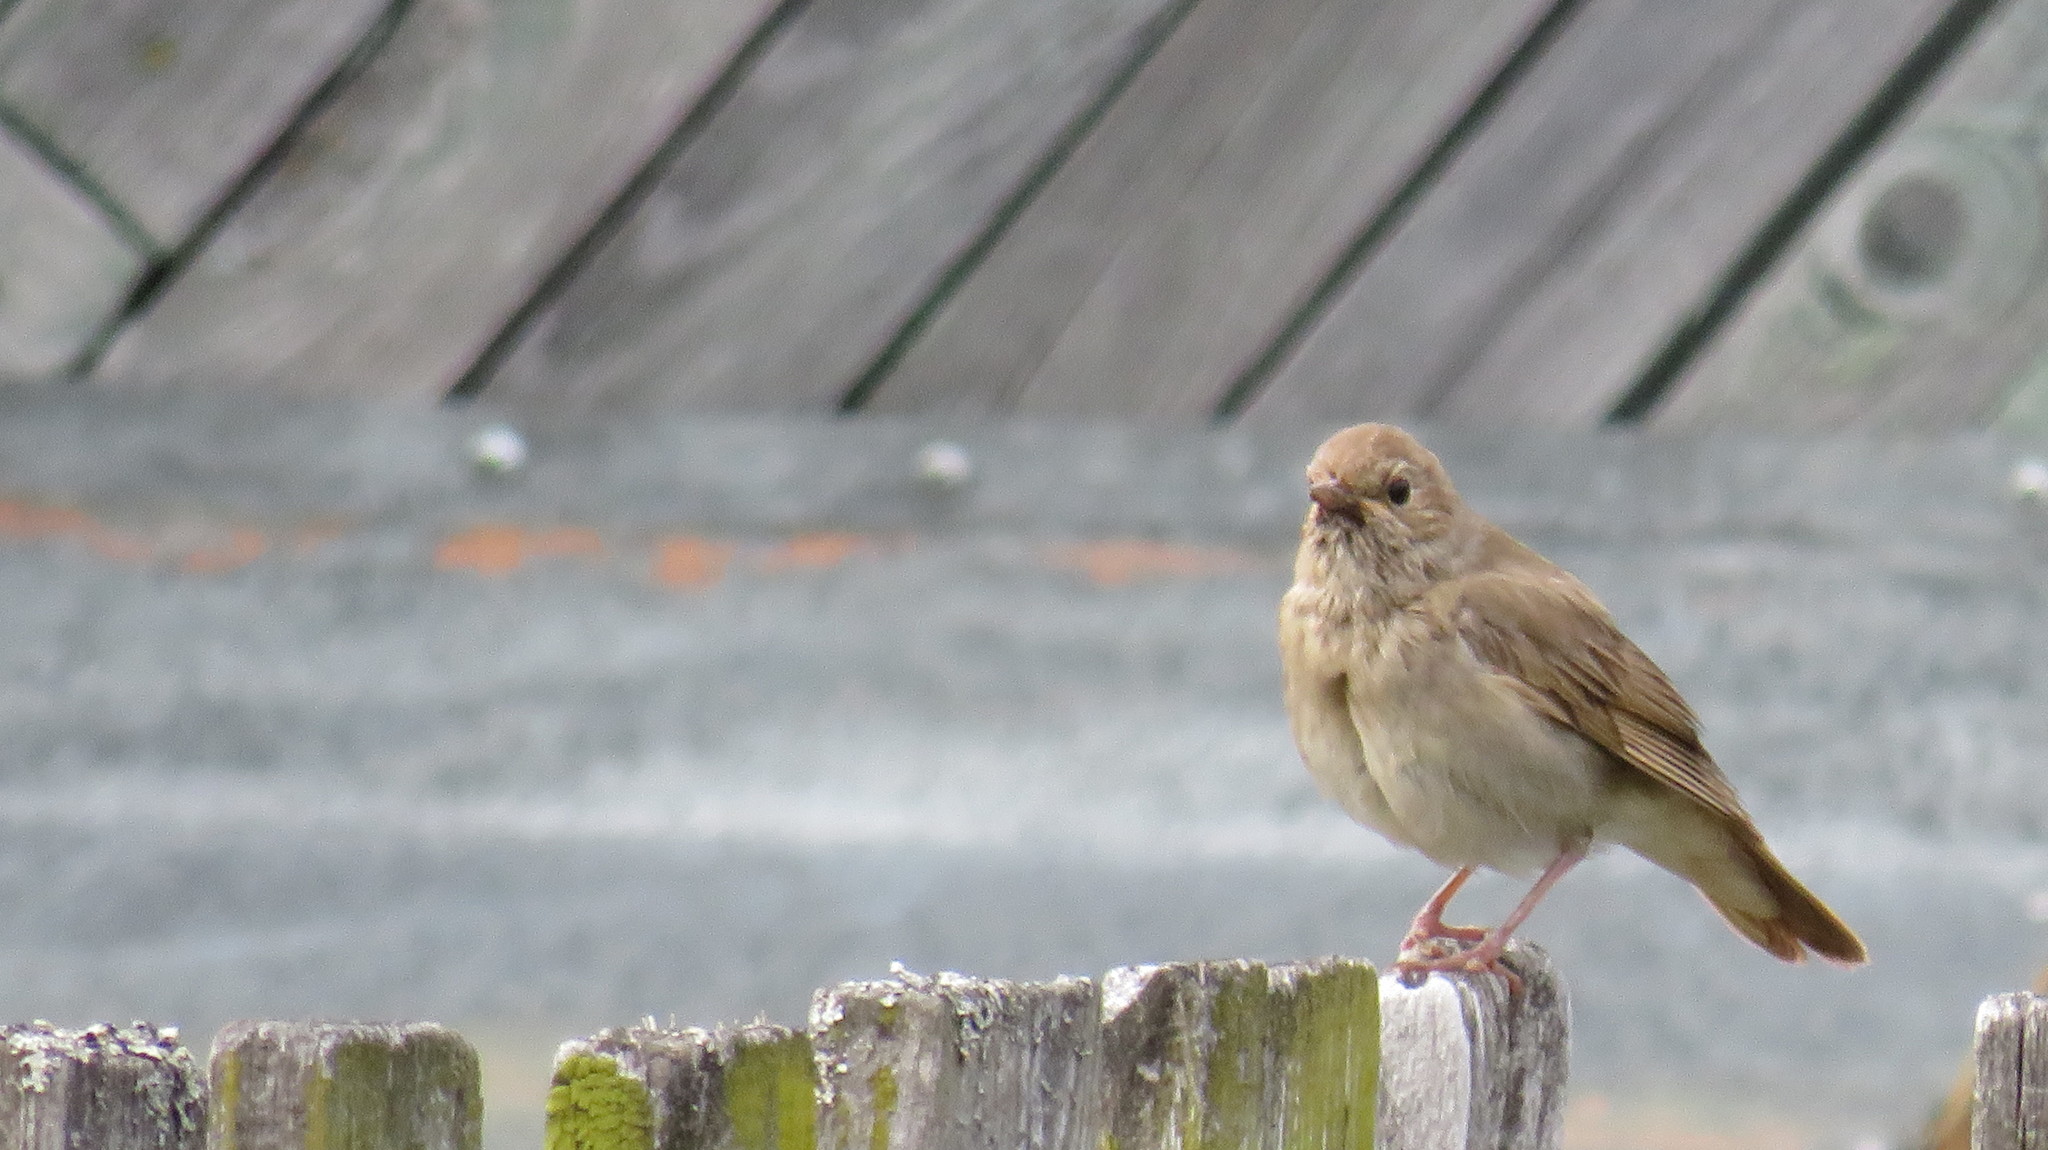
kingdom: Animalia
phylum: Chordata
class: Aves
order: Passeriformes
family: Muscicapidae
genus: Luscinia
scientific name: Luscinia luscinia
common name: Thrush nightingale
